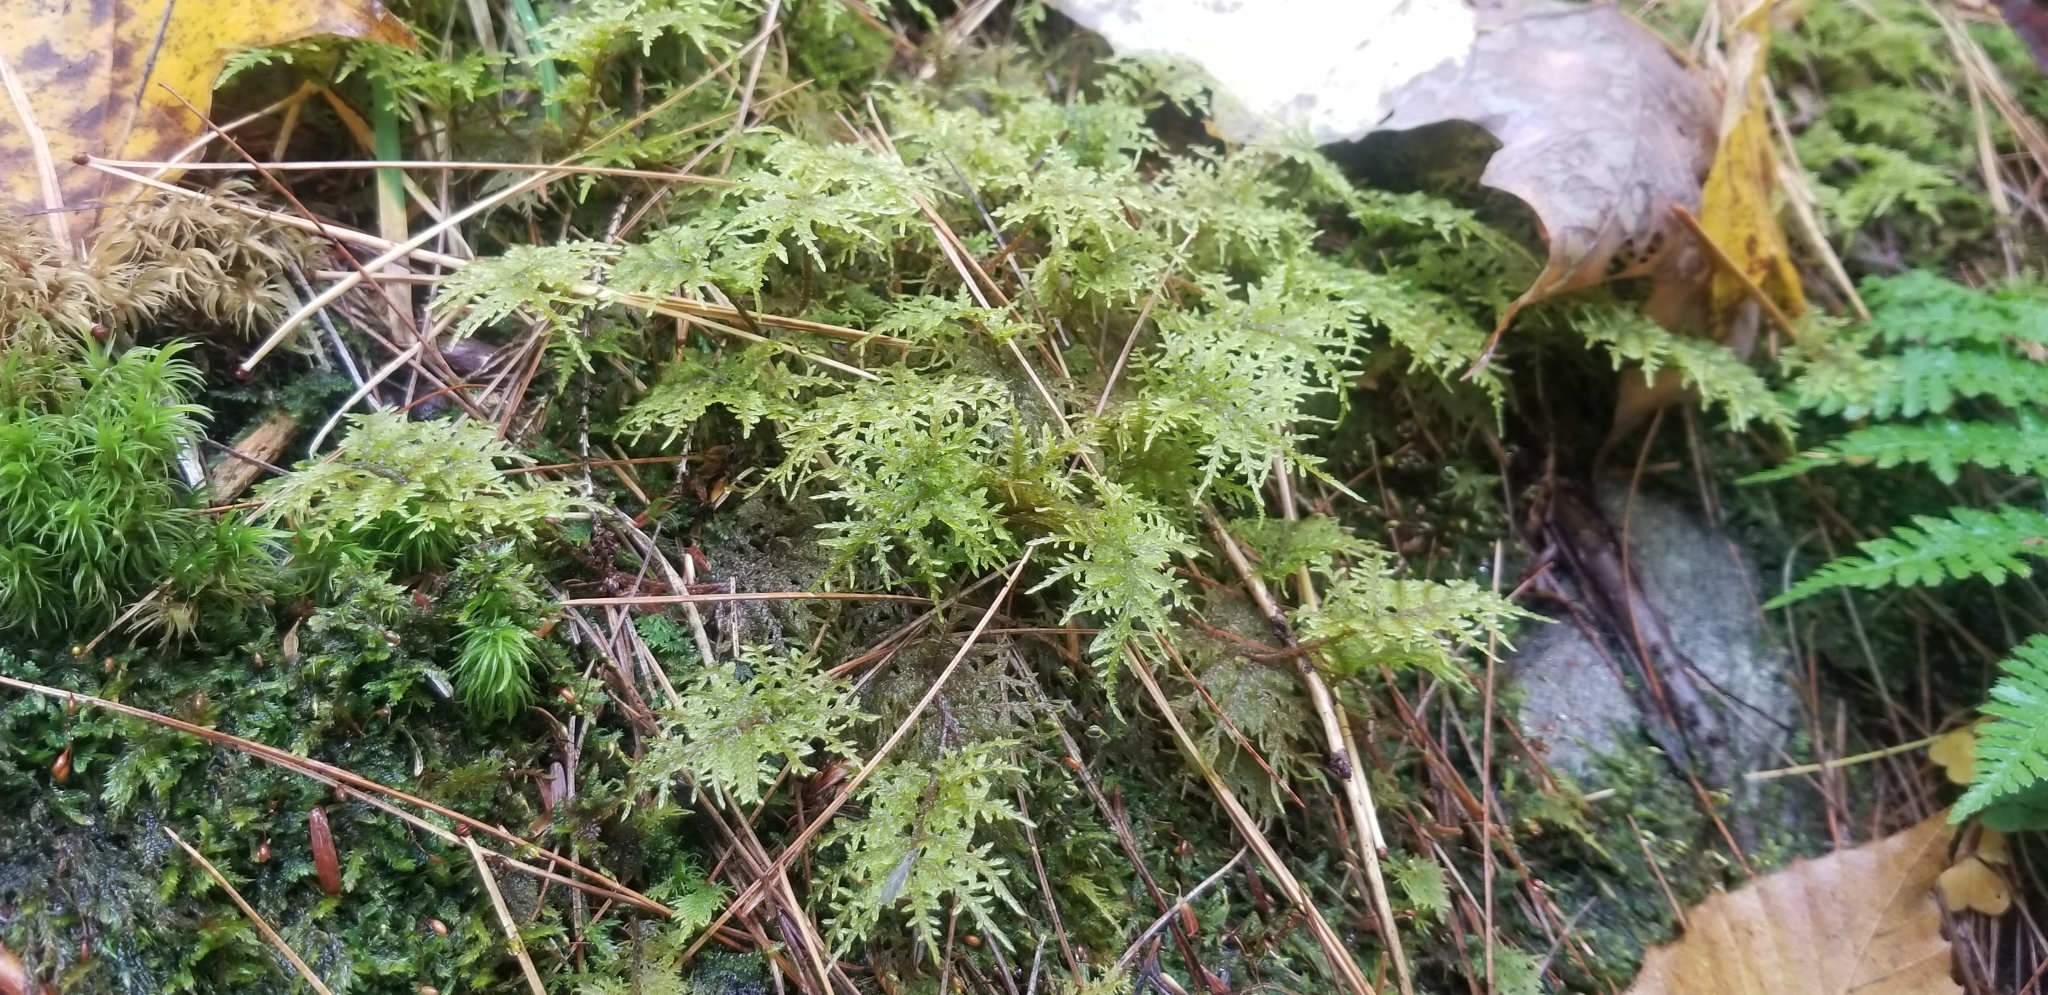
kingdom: Plantae
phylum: Bryophyta
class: Bryopsida
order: Hypnales
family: Hylocomiaceae
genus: Hylocomium
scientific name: Hylocomium splendens
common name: Stairstep moss
